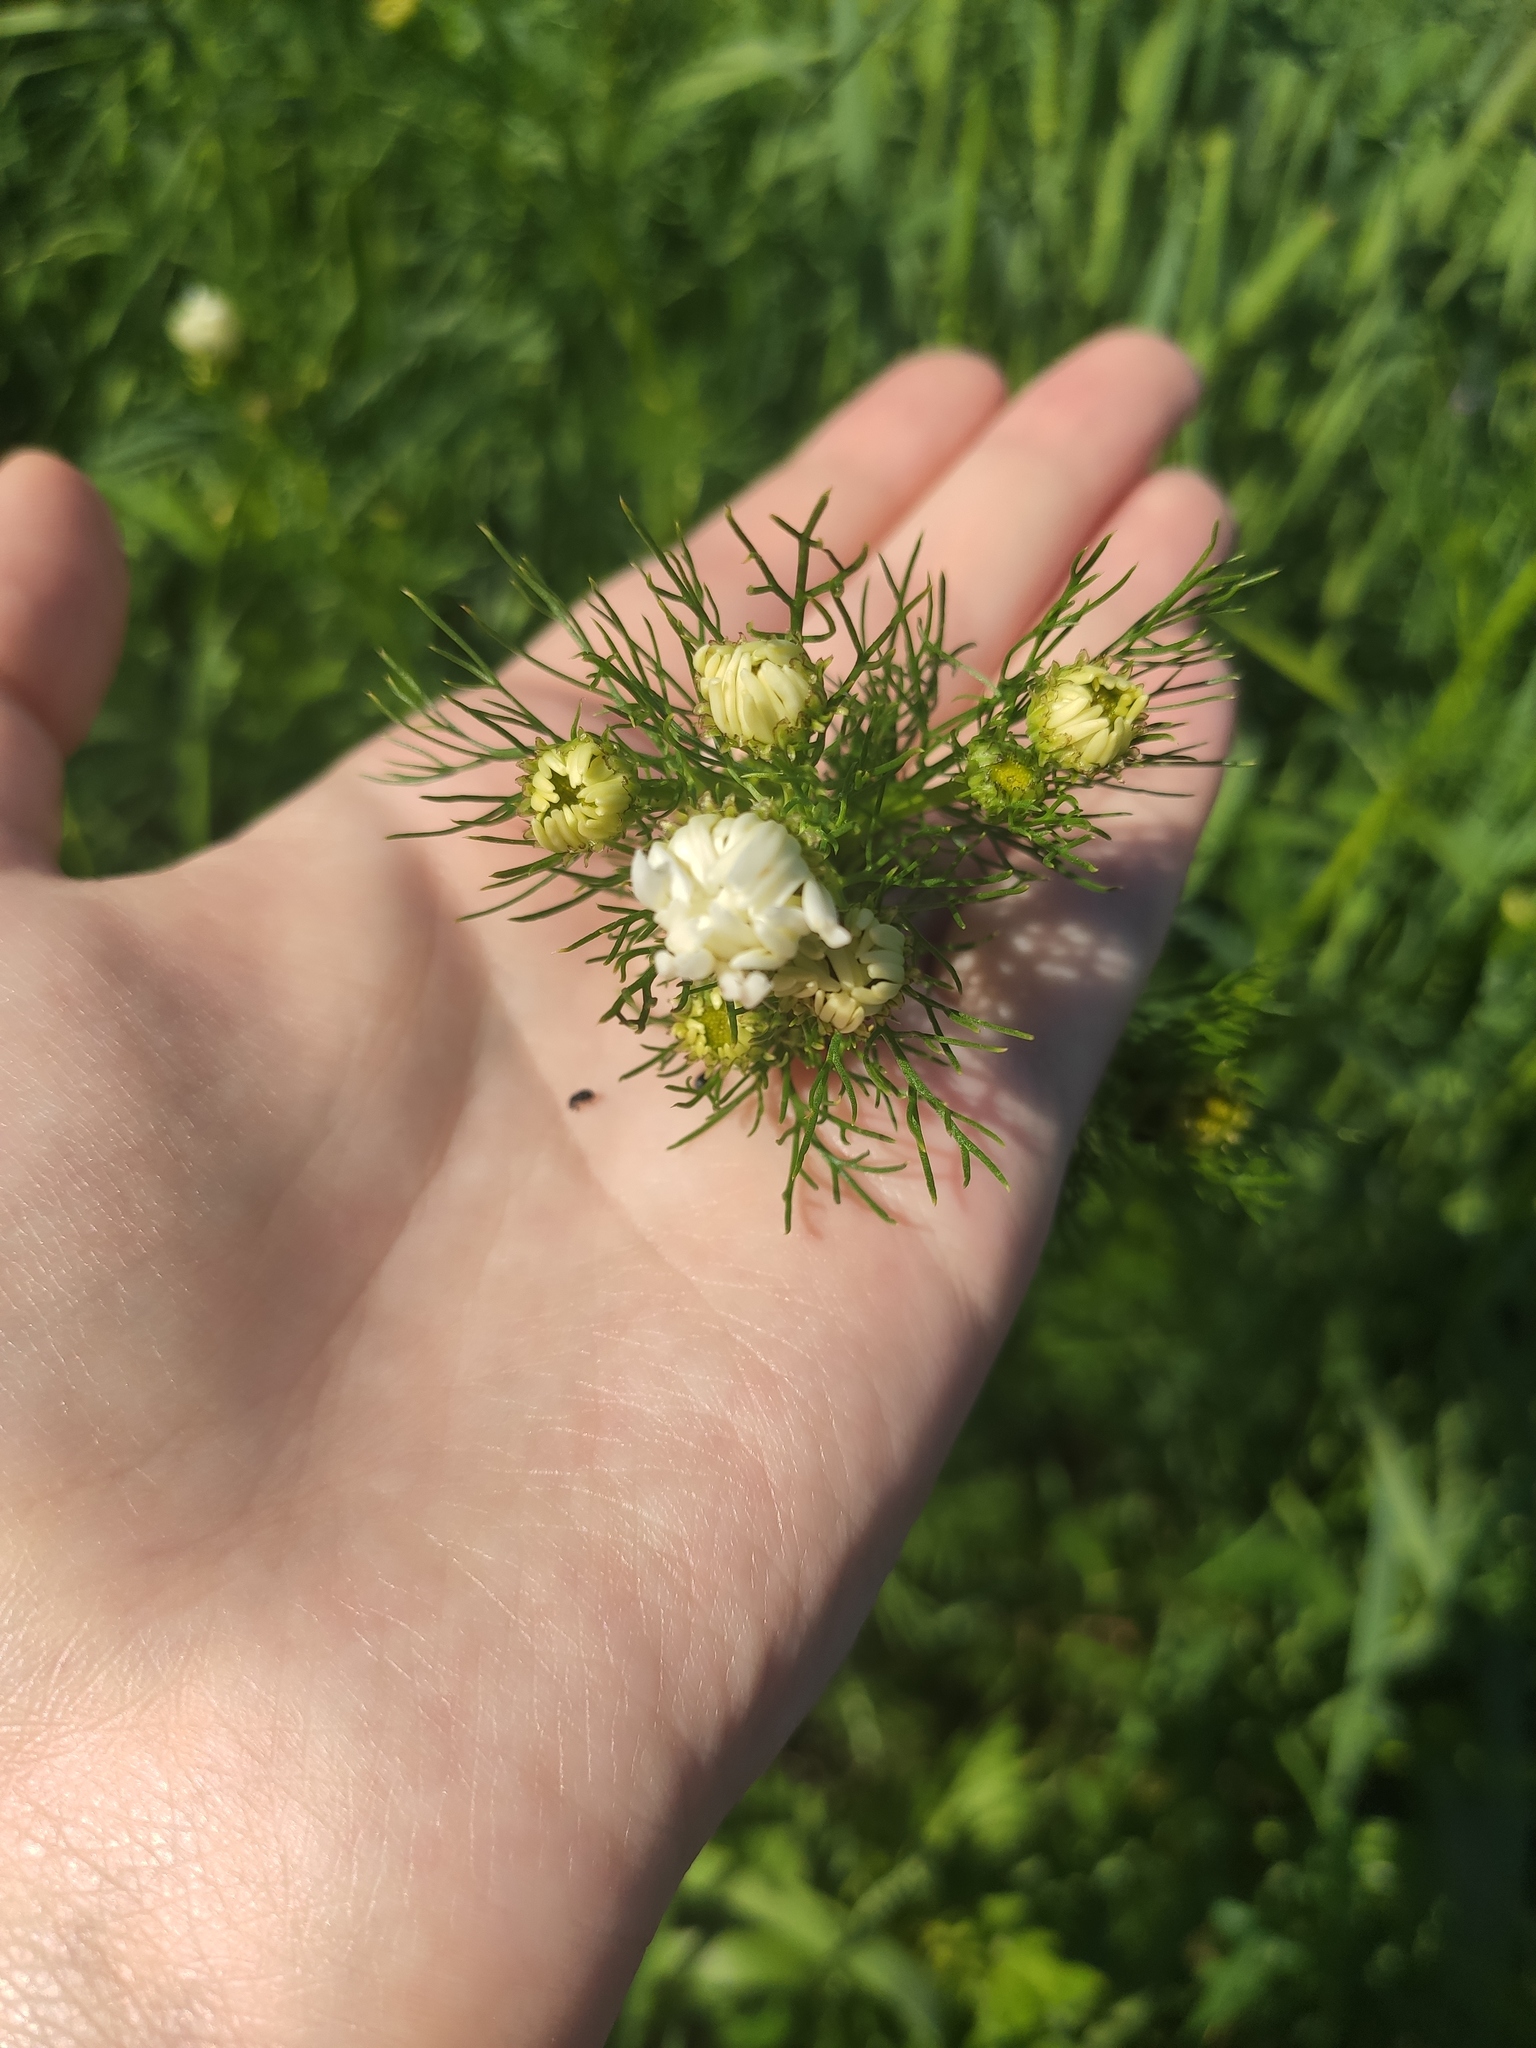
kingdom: Plantae
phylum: Tracheophyta
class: Magnoliopsida
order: Asterales
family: Asteraceae
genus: Tripleurospermum
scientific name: Tripleurospermum inodorum
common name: Scentless mayweed
